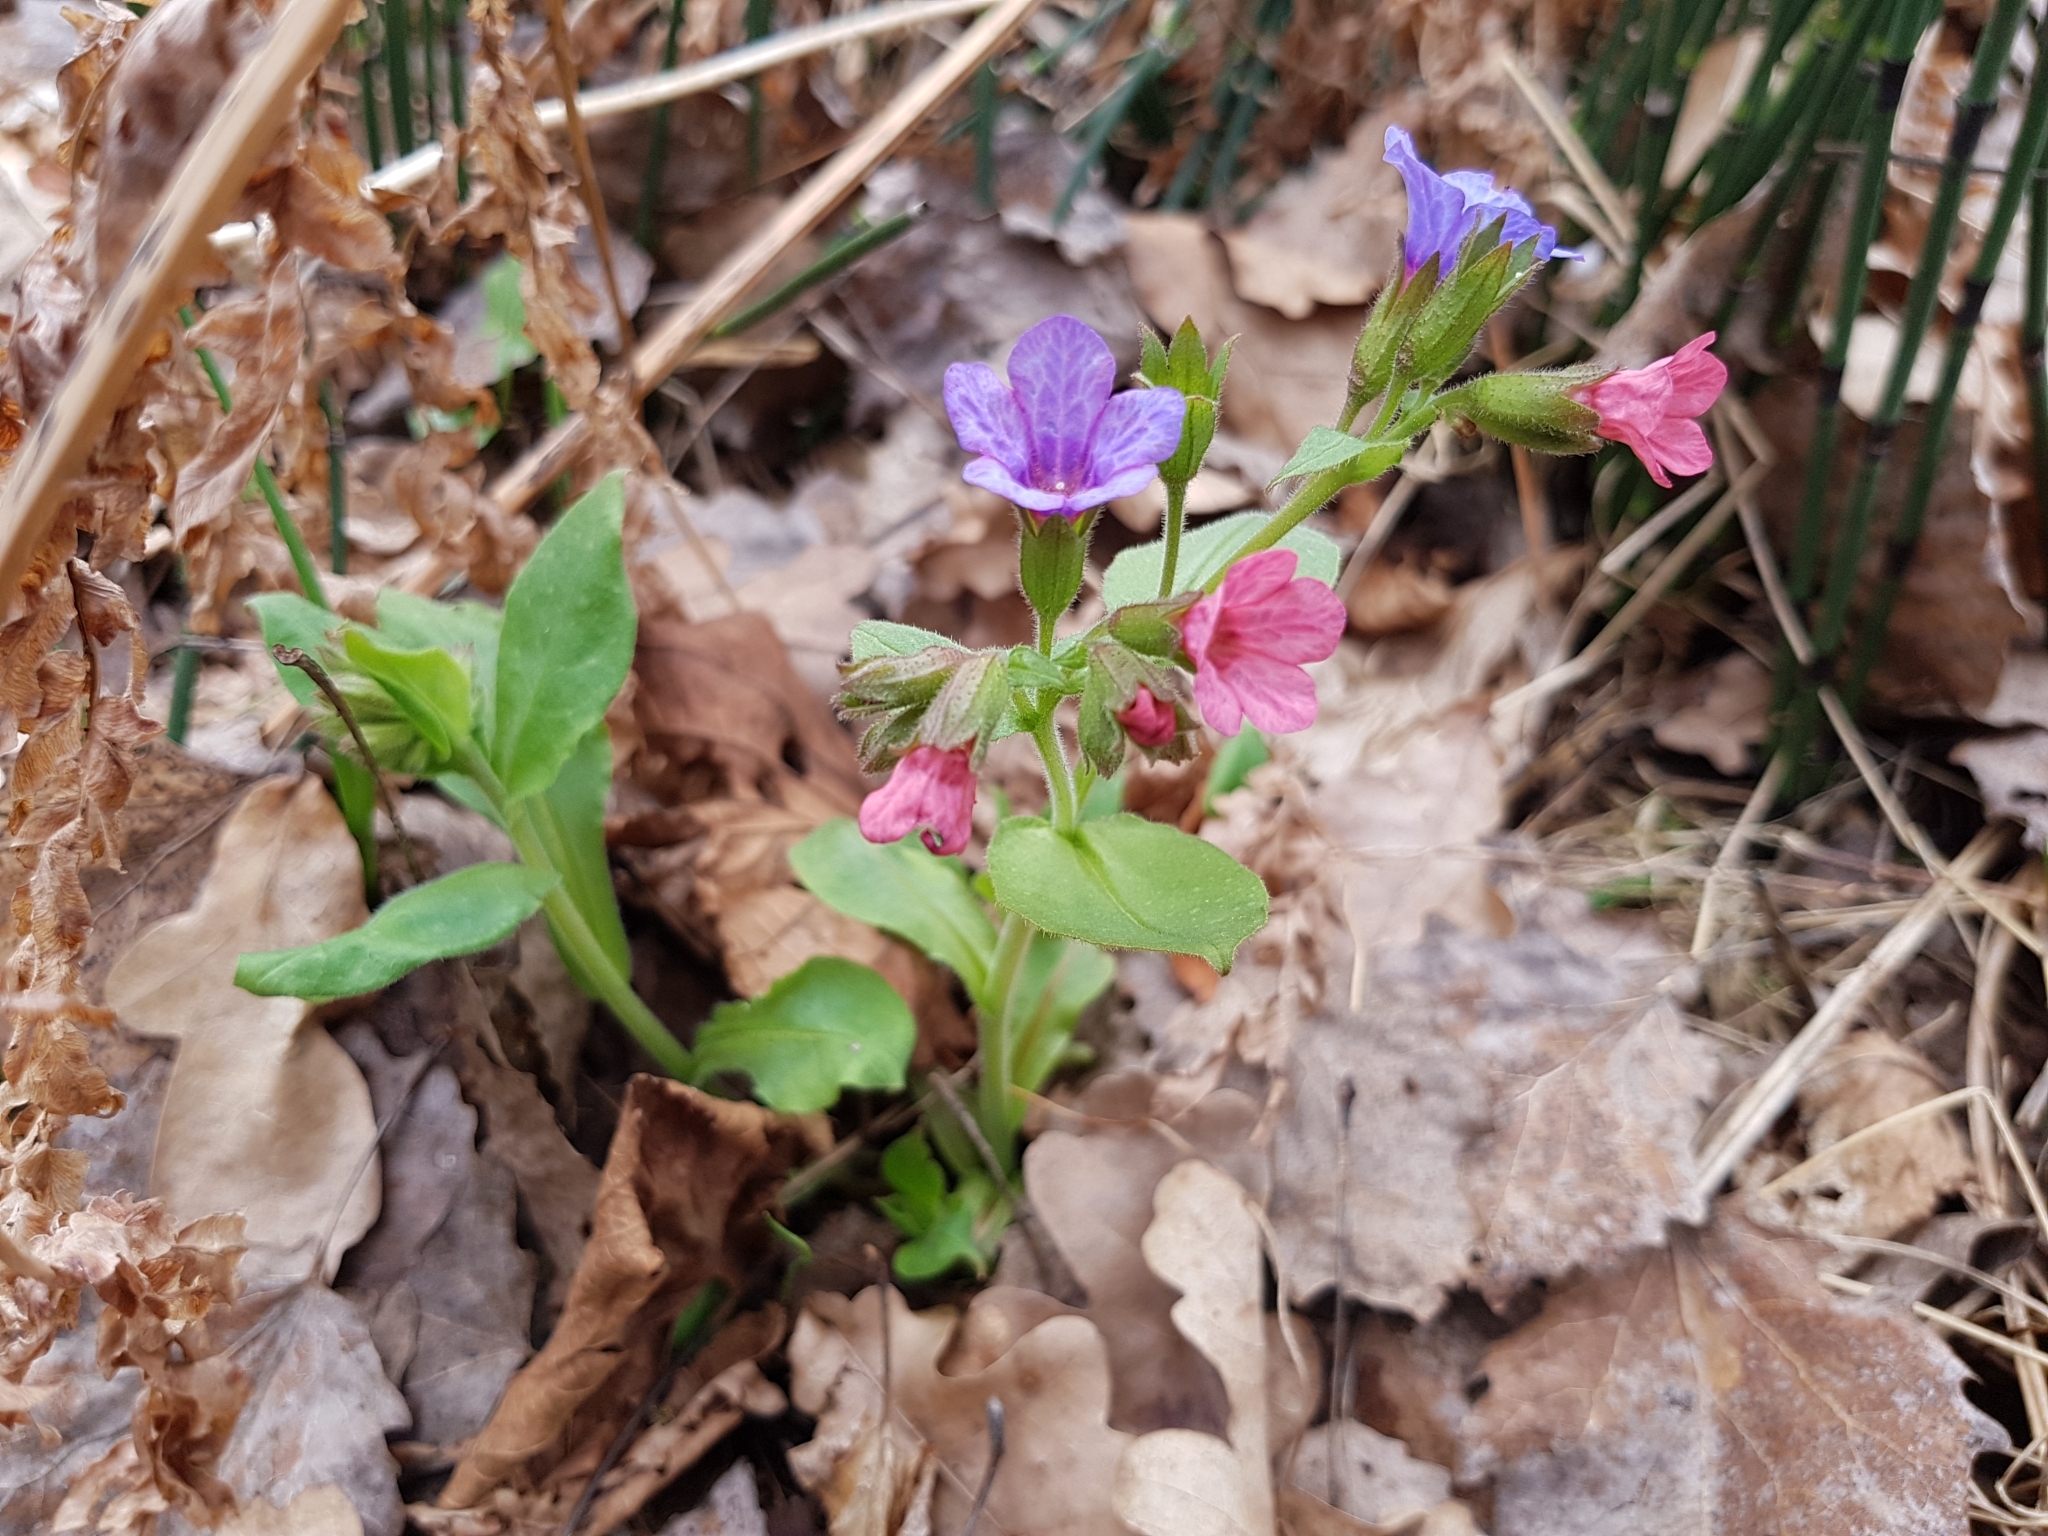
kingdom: Plantae
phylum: Tracheophyta
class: Magnoliopsida
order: Boraginales
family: Boraginaceae
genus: Pulmonaria
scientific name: Pulmonaria obscura
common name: Suffolk lungwort
